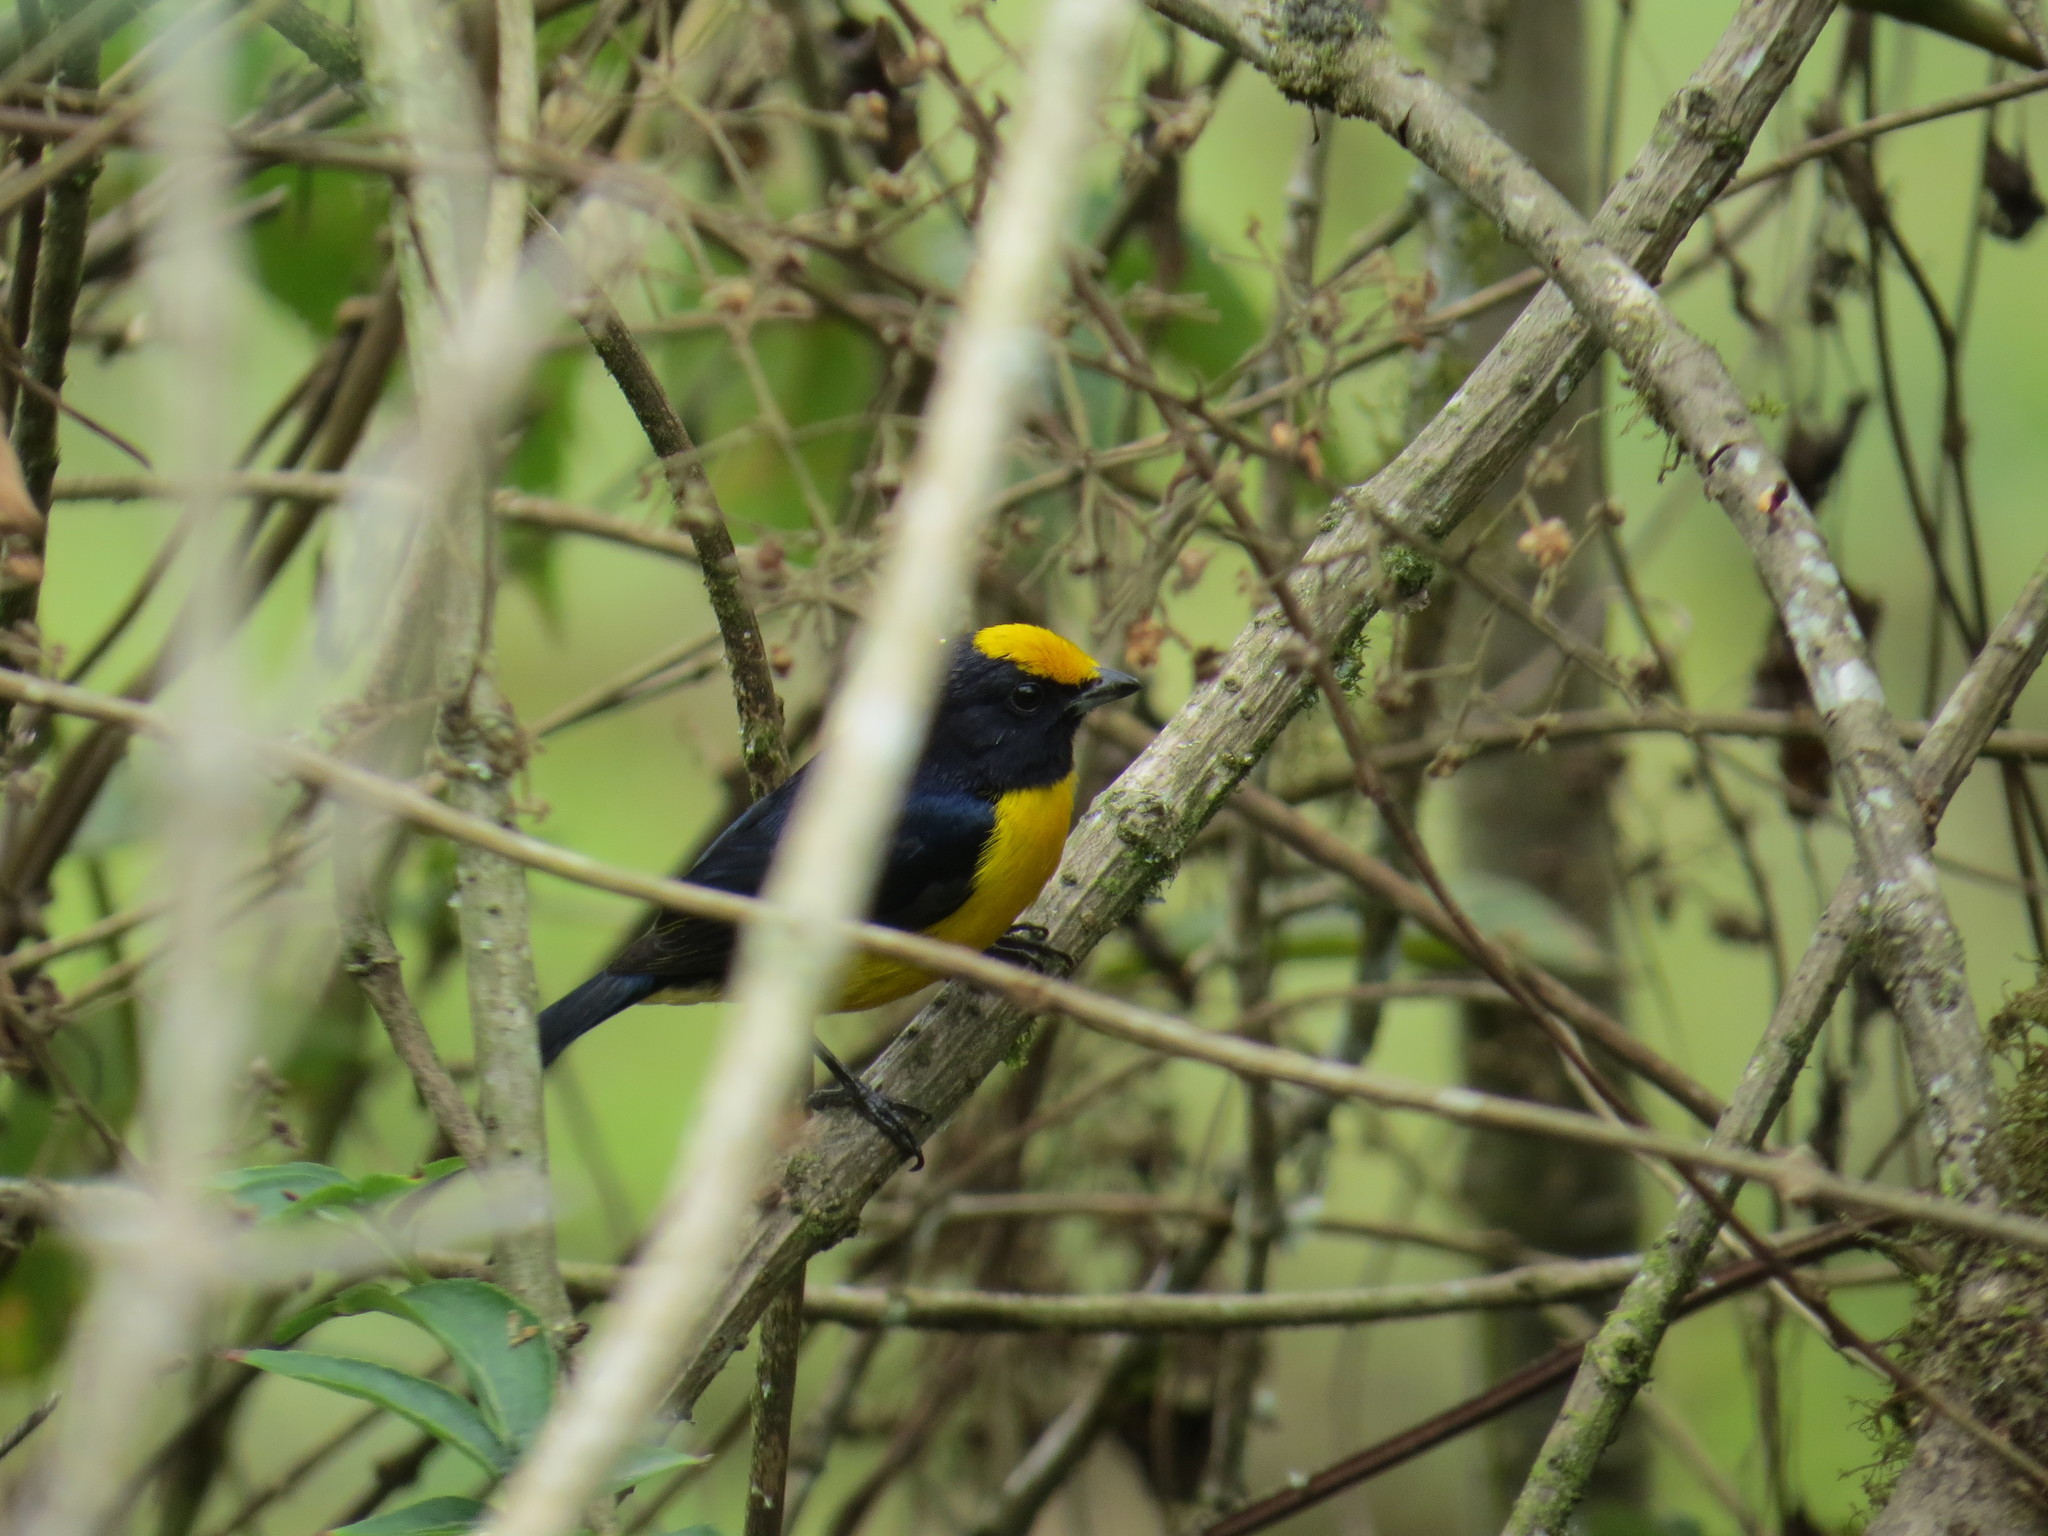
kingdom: Animalia
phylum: Chordata
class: Aves
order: Passeriformes
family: Fringillidae
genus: Euphonia
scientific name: Euphonia xanthogaster
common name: Orange-bellied euphonia
